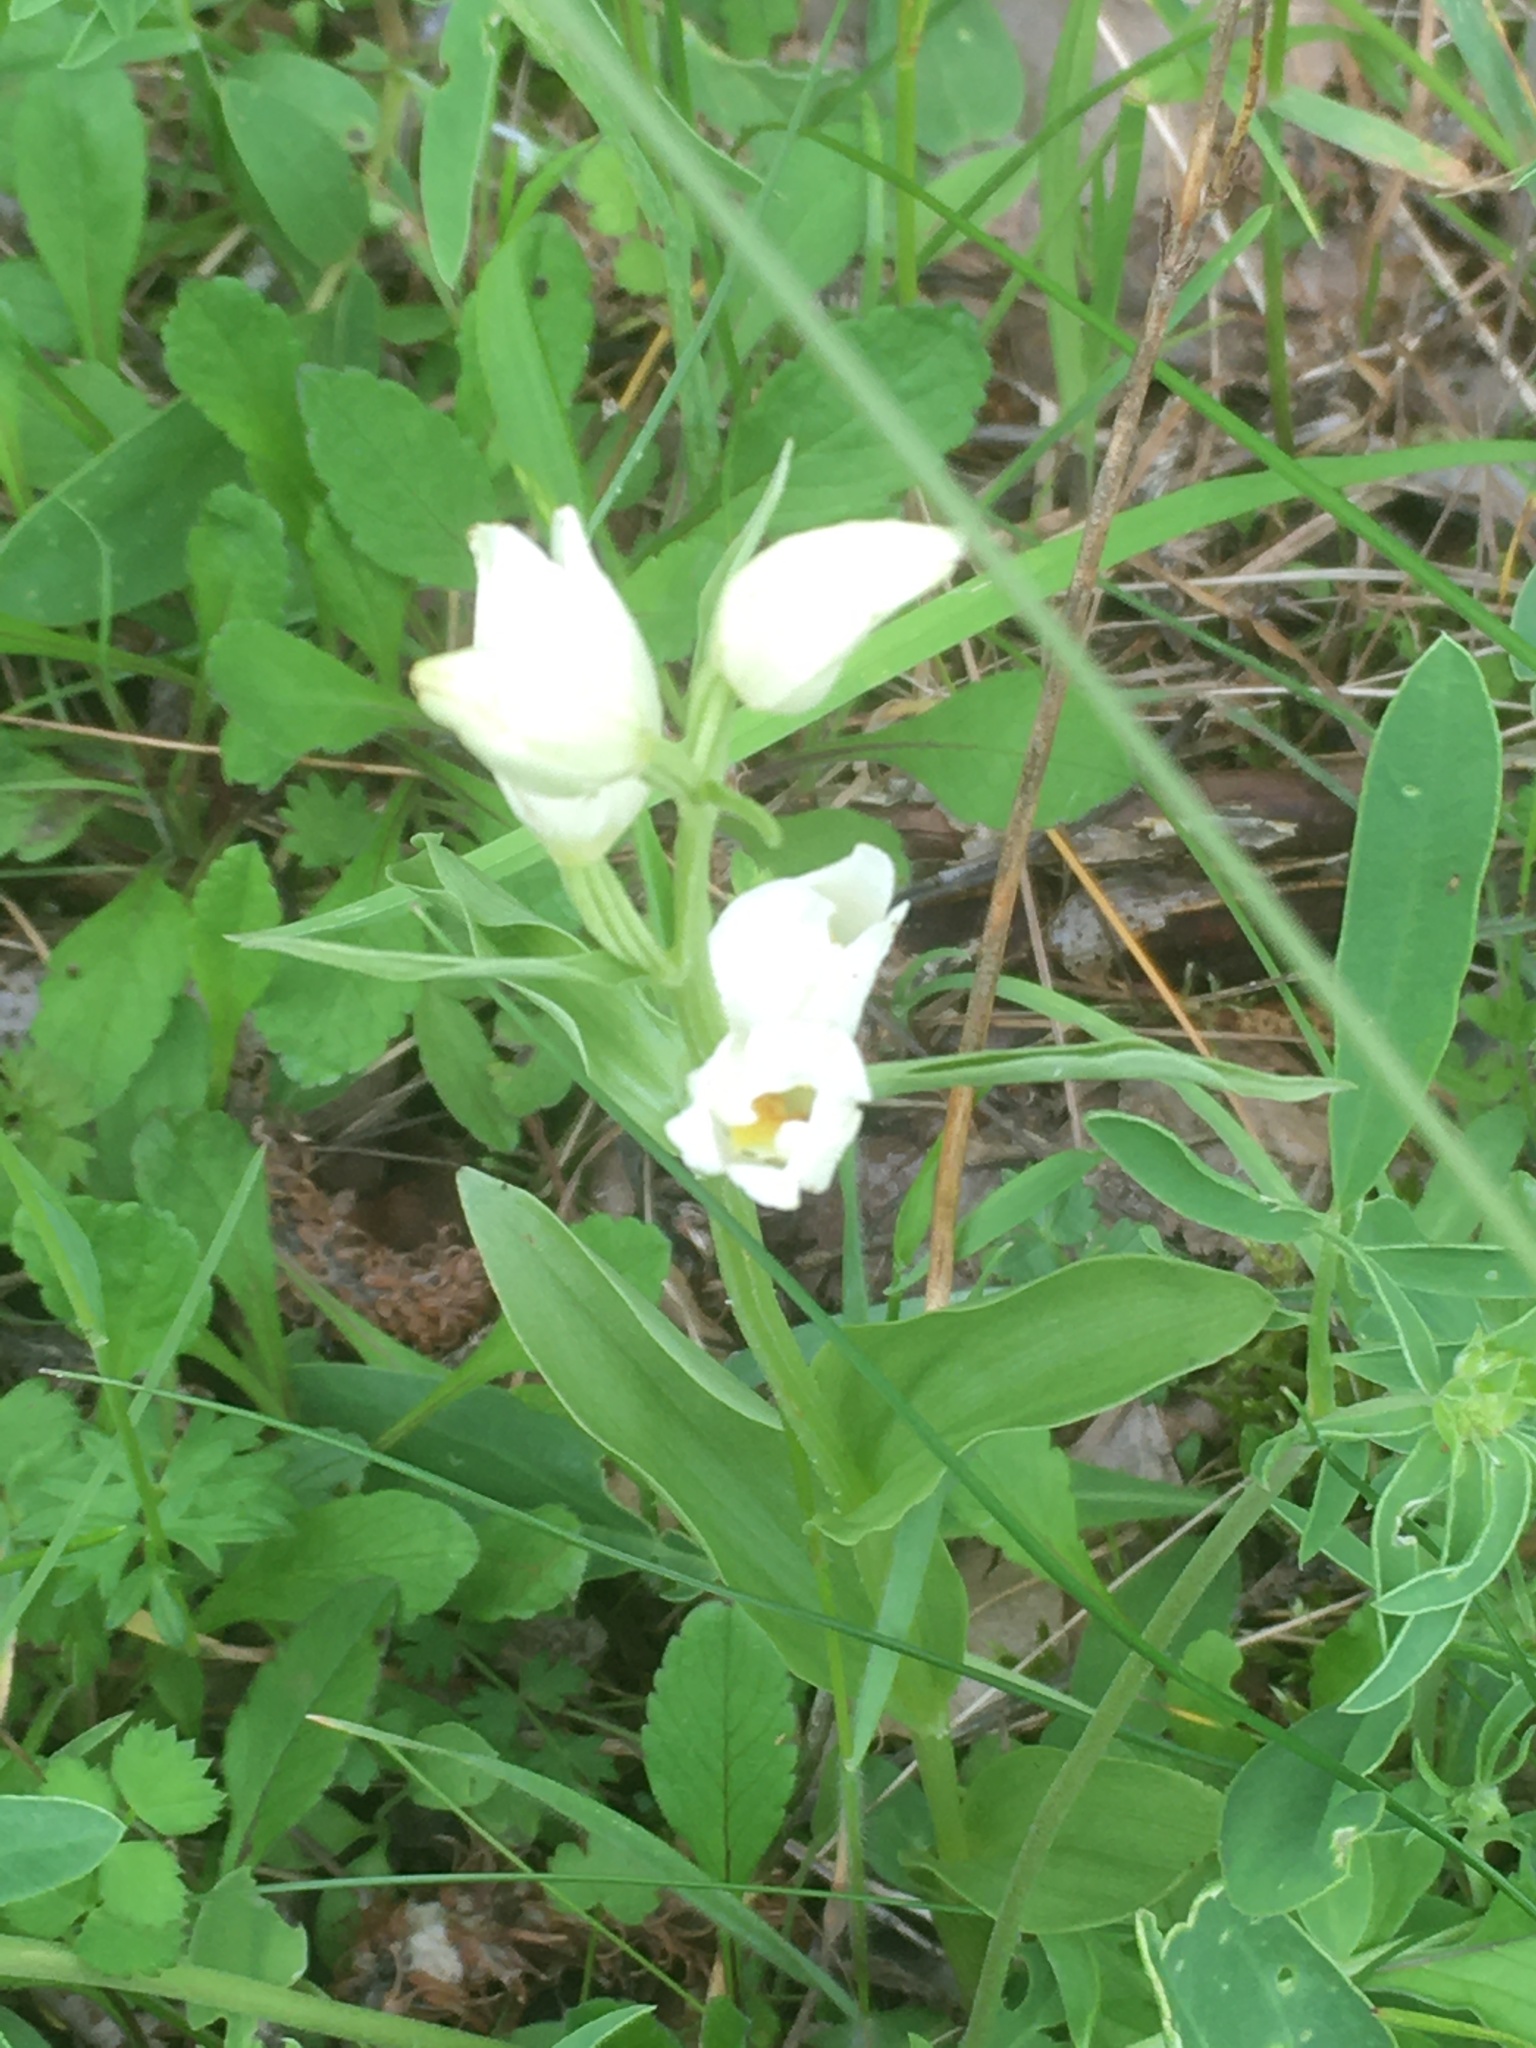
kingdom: Plantae
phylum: Tracheophyta
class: Liliopsida
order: Asparagales
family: Orchidaceae
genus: Cephalanthera
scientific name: Cephalanthera damasonium
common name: White helleborine
